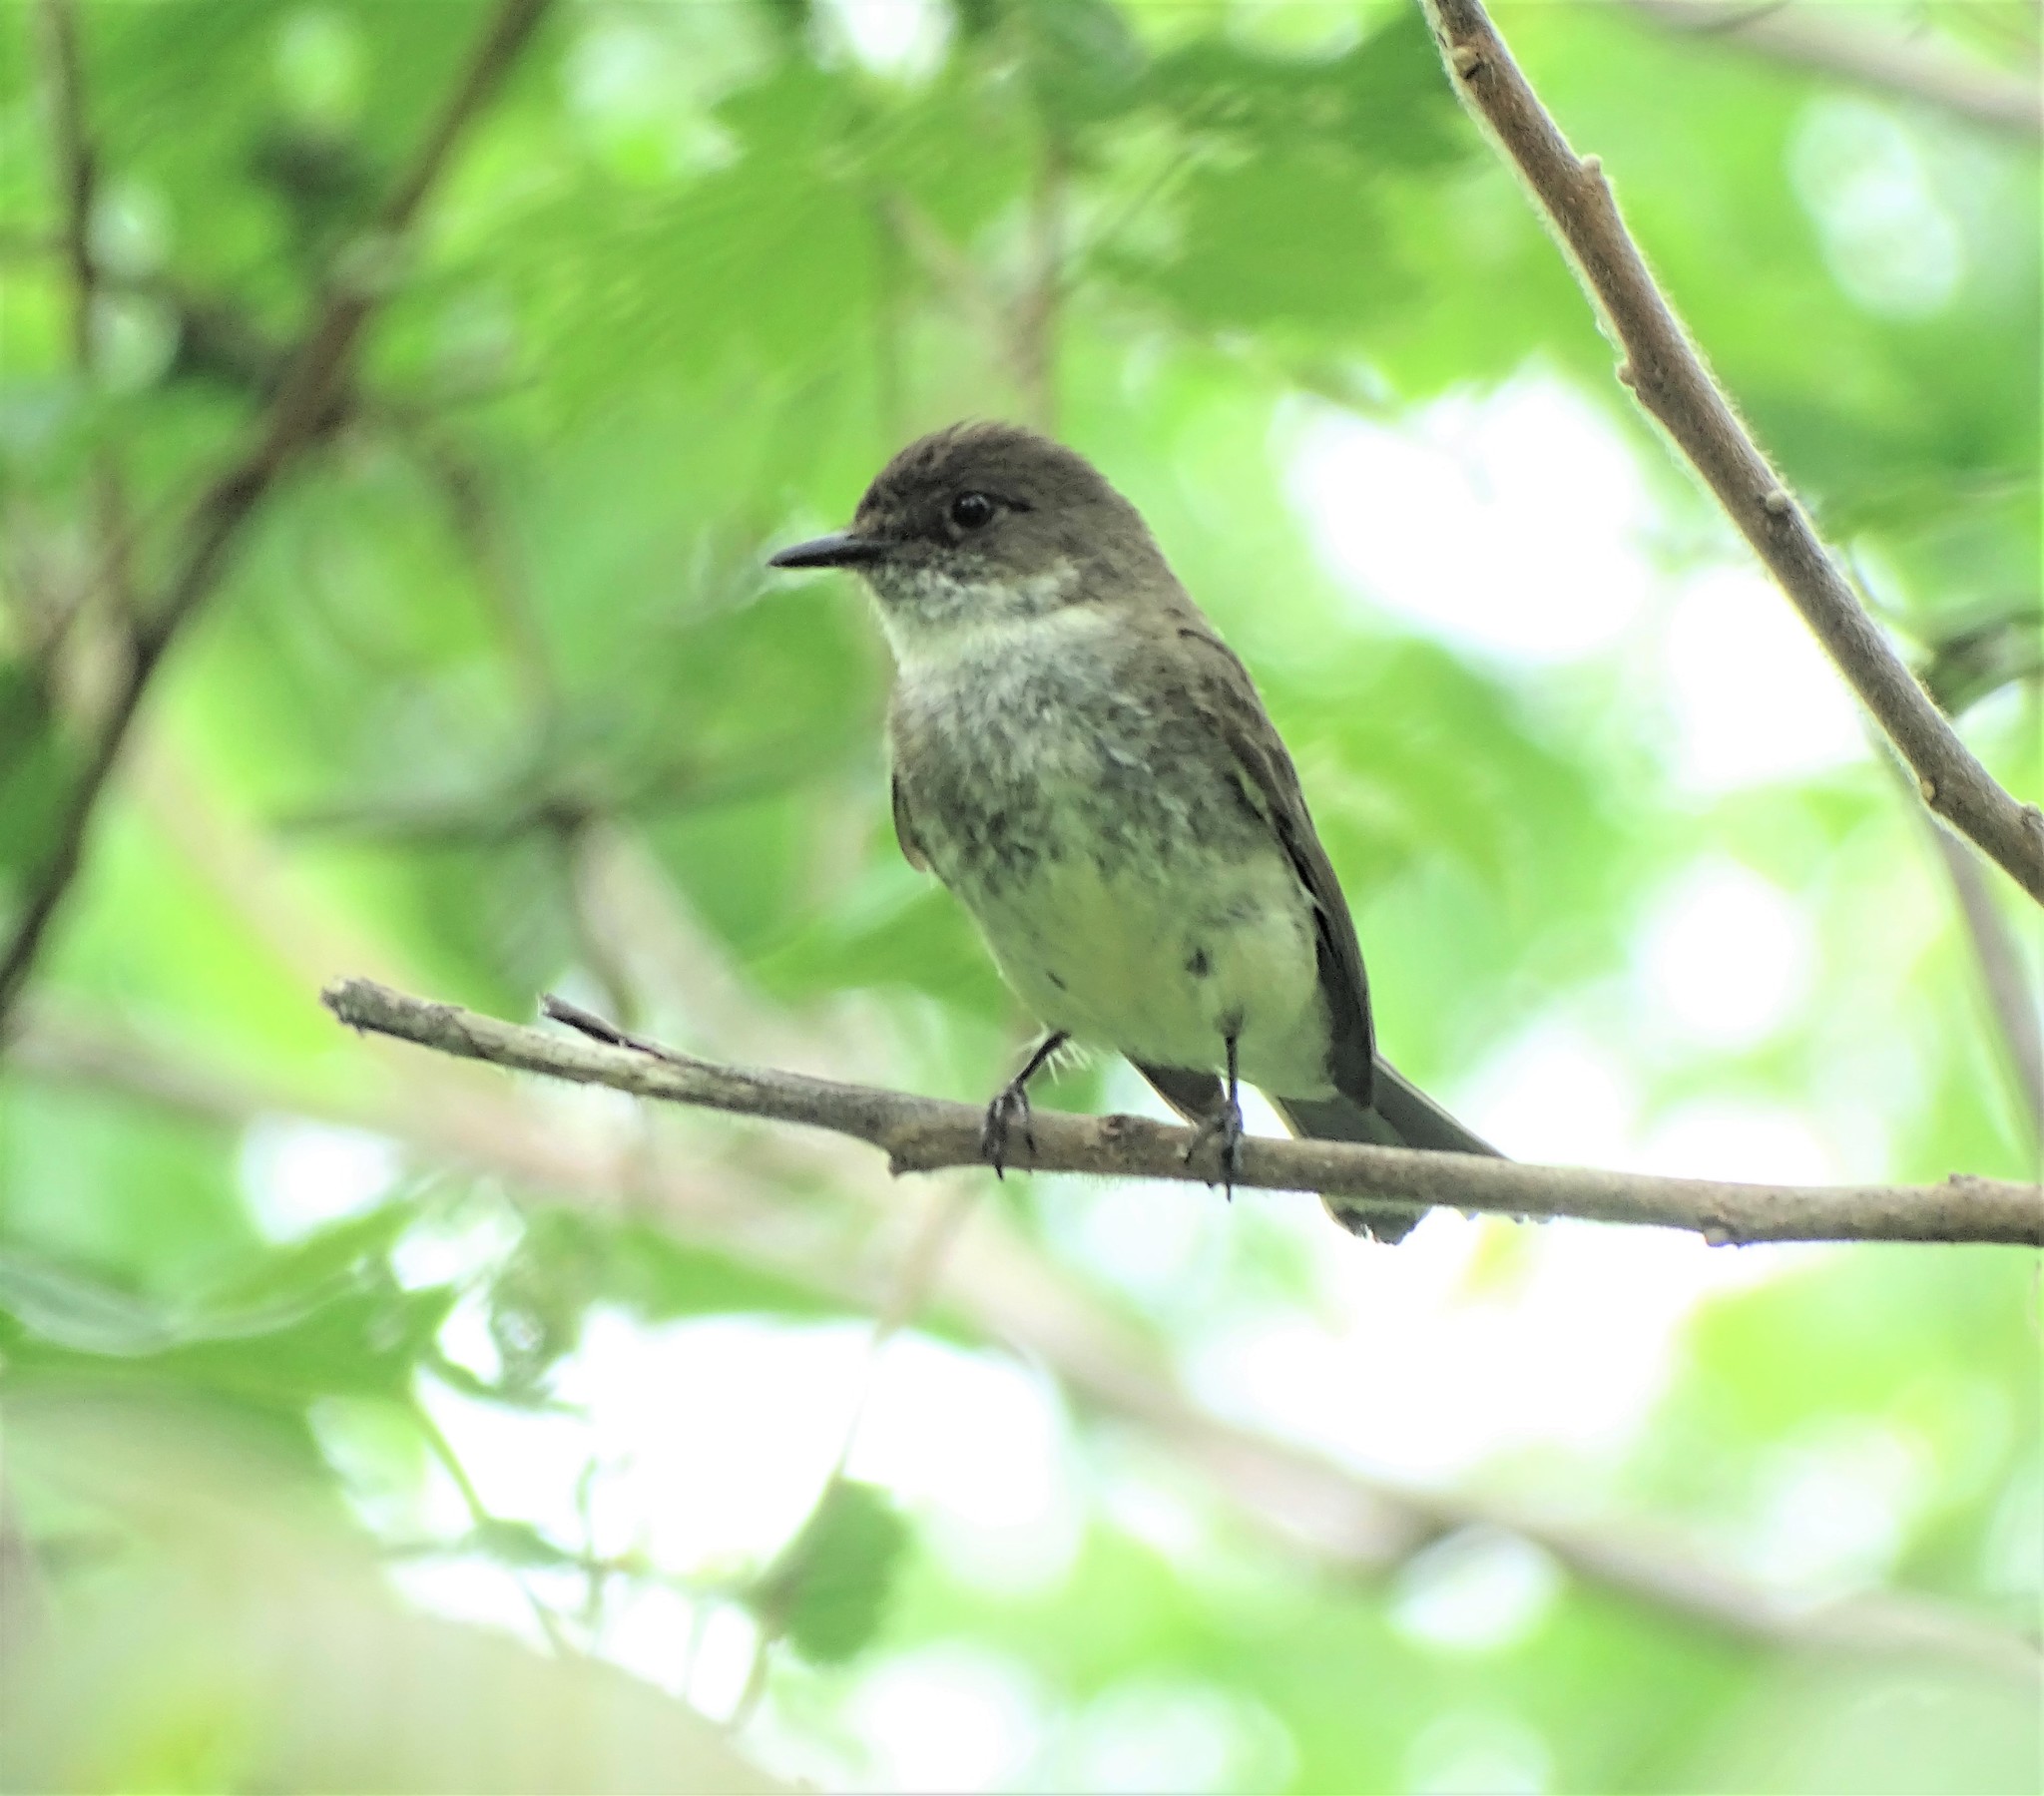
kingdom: Animalia
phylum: Chordata
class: Aves
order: Passeriformes
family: Tyrannidae
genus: Sayornis
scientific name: Sayornis phoebe
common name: Eastern phoebe
